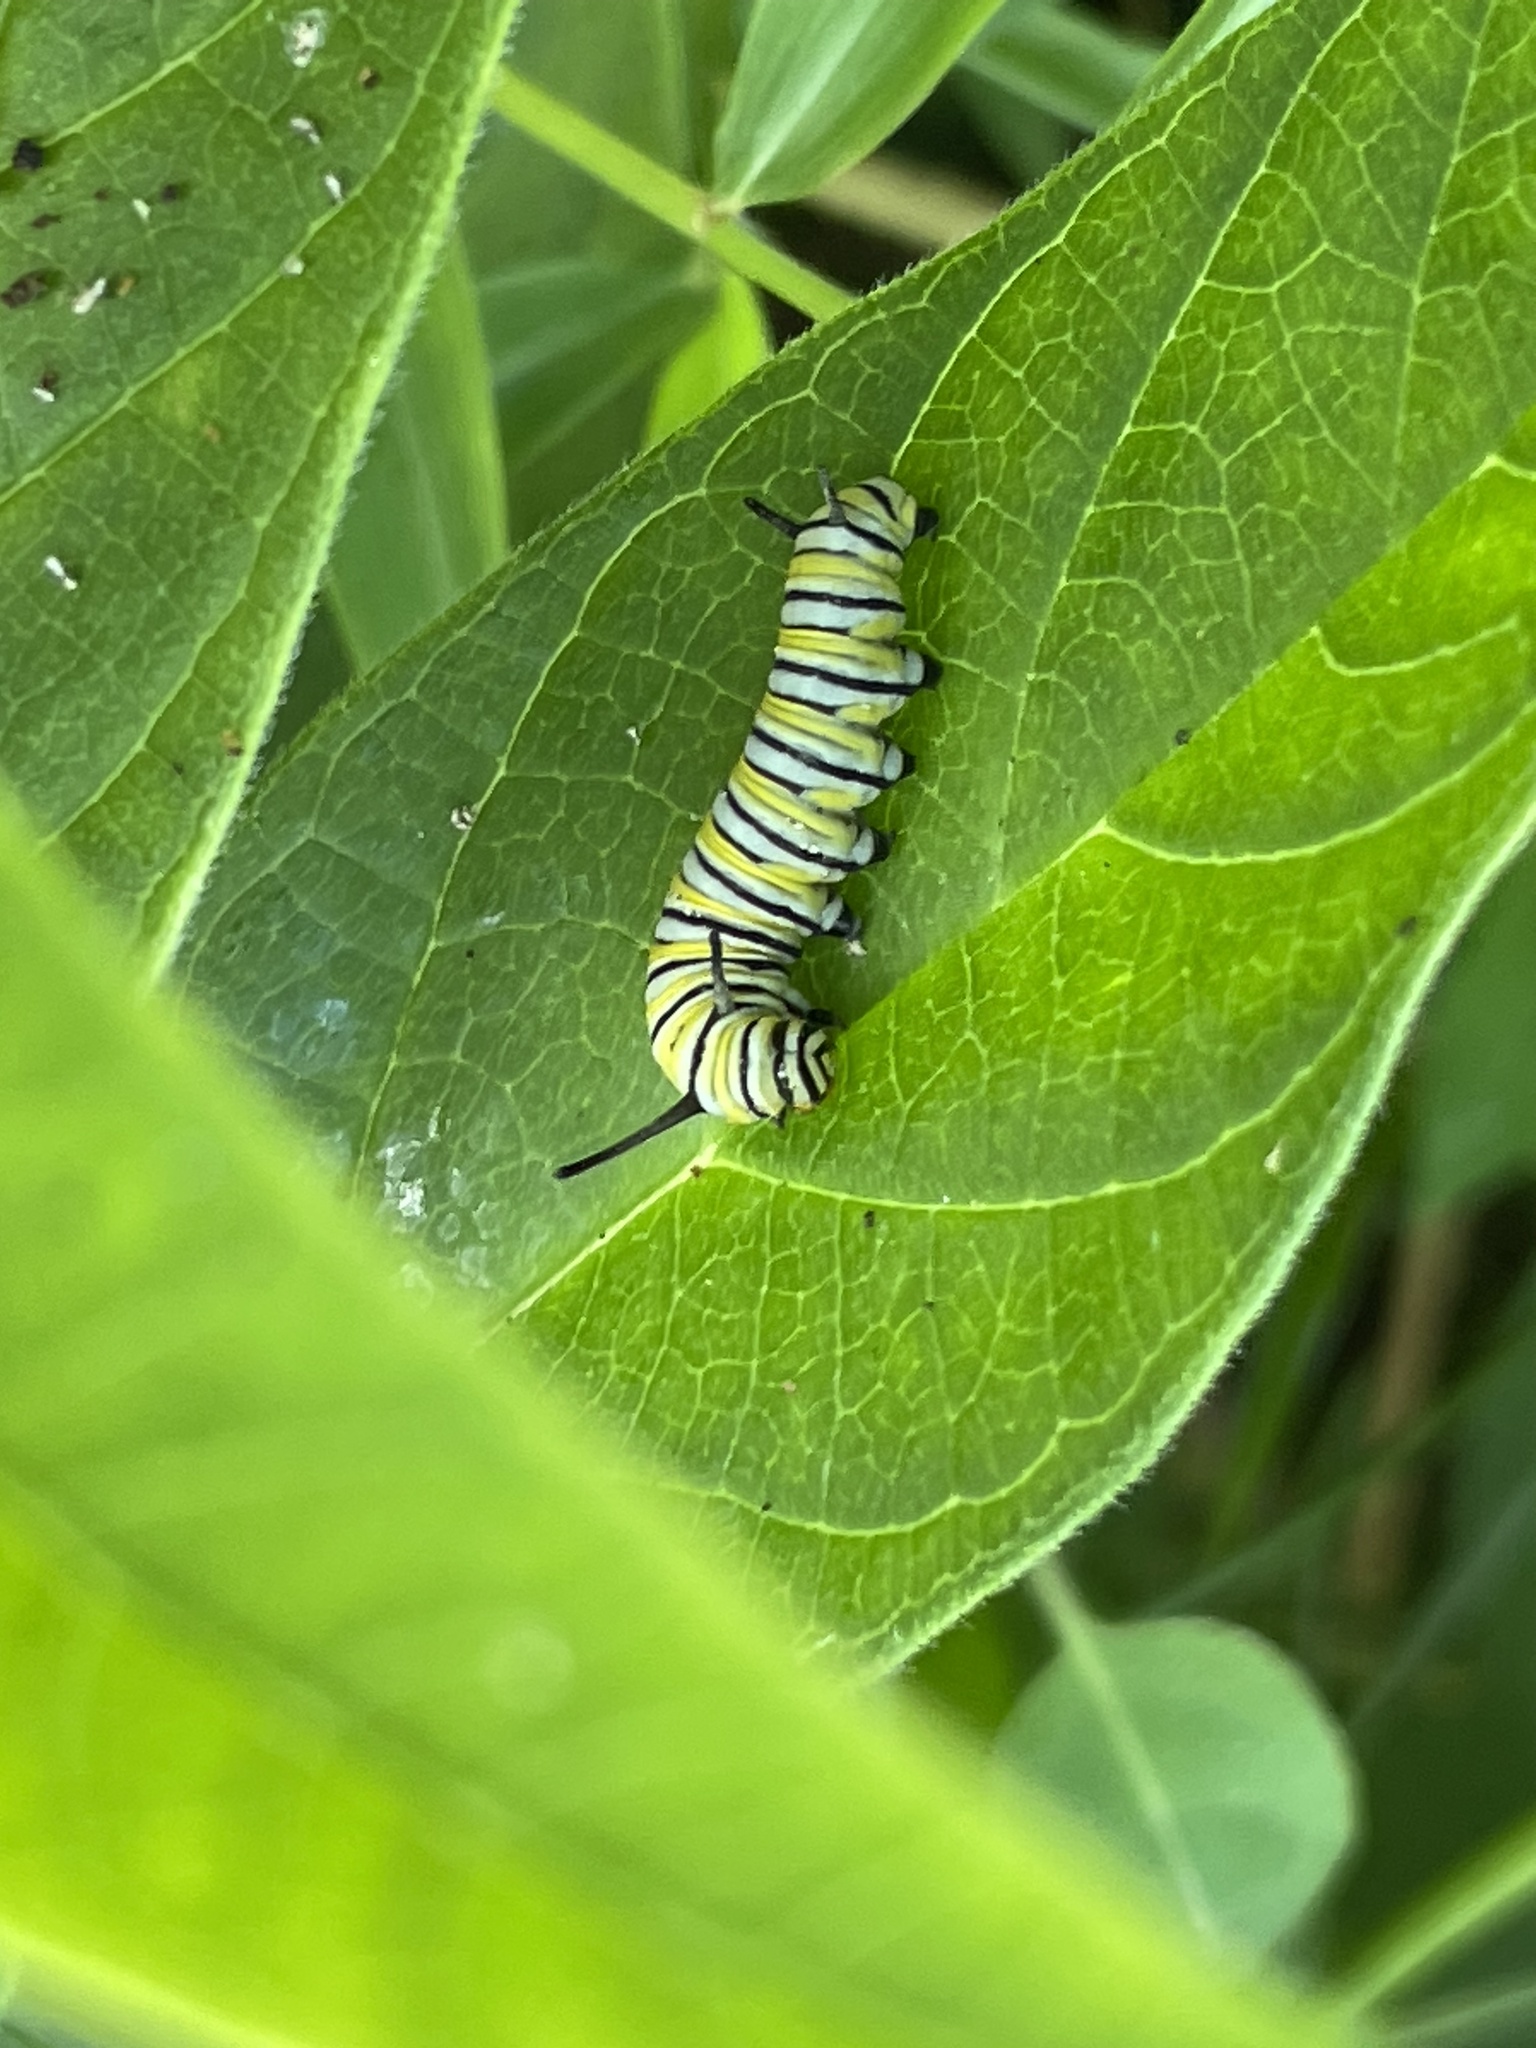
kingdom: Animalia
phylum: Arthropoda
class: Insecta
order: Lepidoptera
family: Nymphalidae
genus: Danaus
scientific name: Danaus plexippus
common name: Monarch
